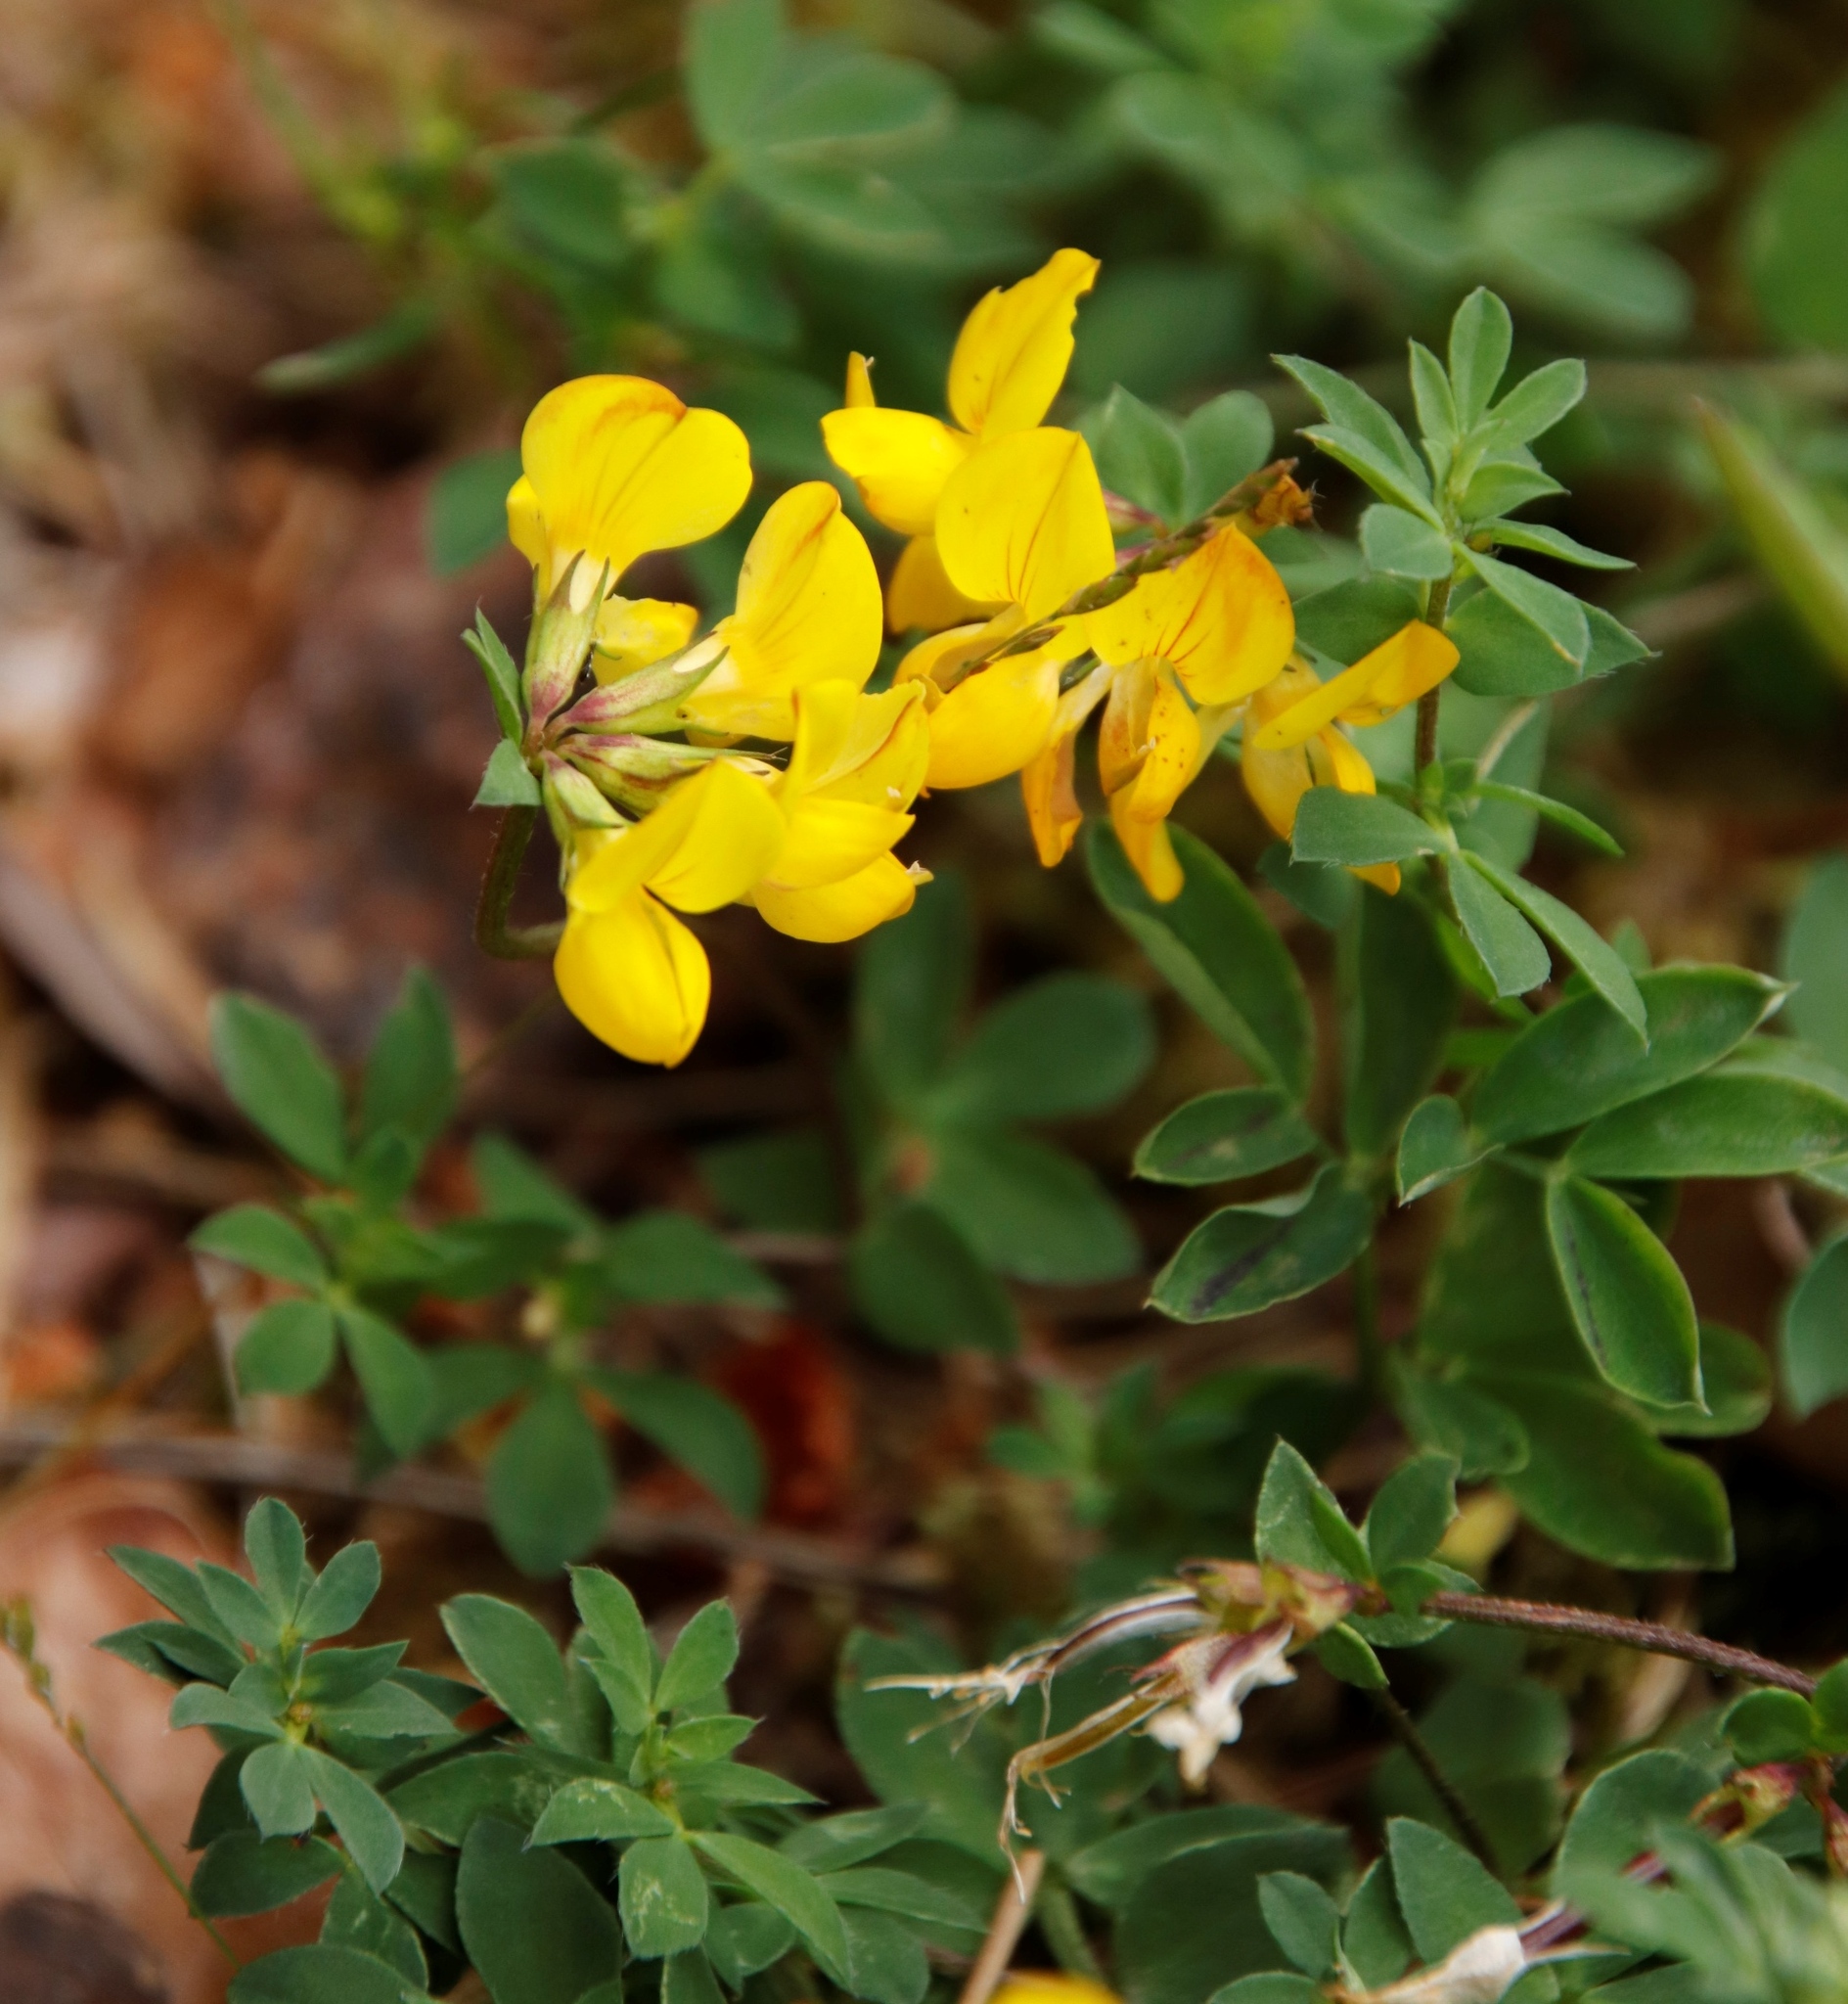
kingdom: Plantae
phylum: Tracheophyta
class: Magnoliopsida
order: Fabales
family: Fabaceae
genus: Lotus
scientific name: Lotus corniculatus
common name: Common bird's-foot-trefoil
